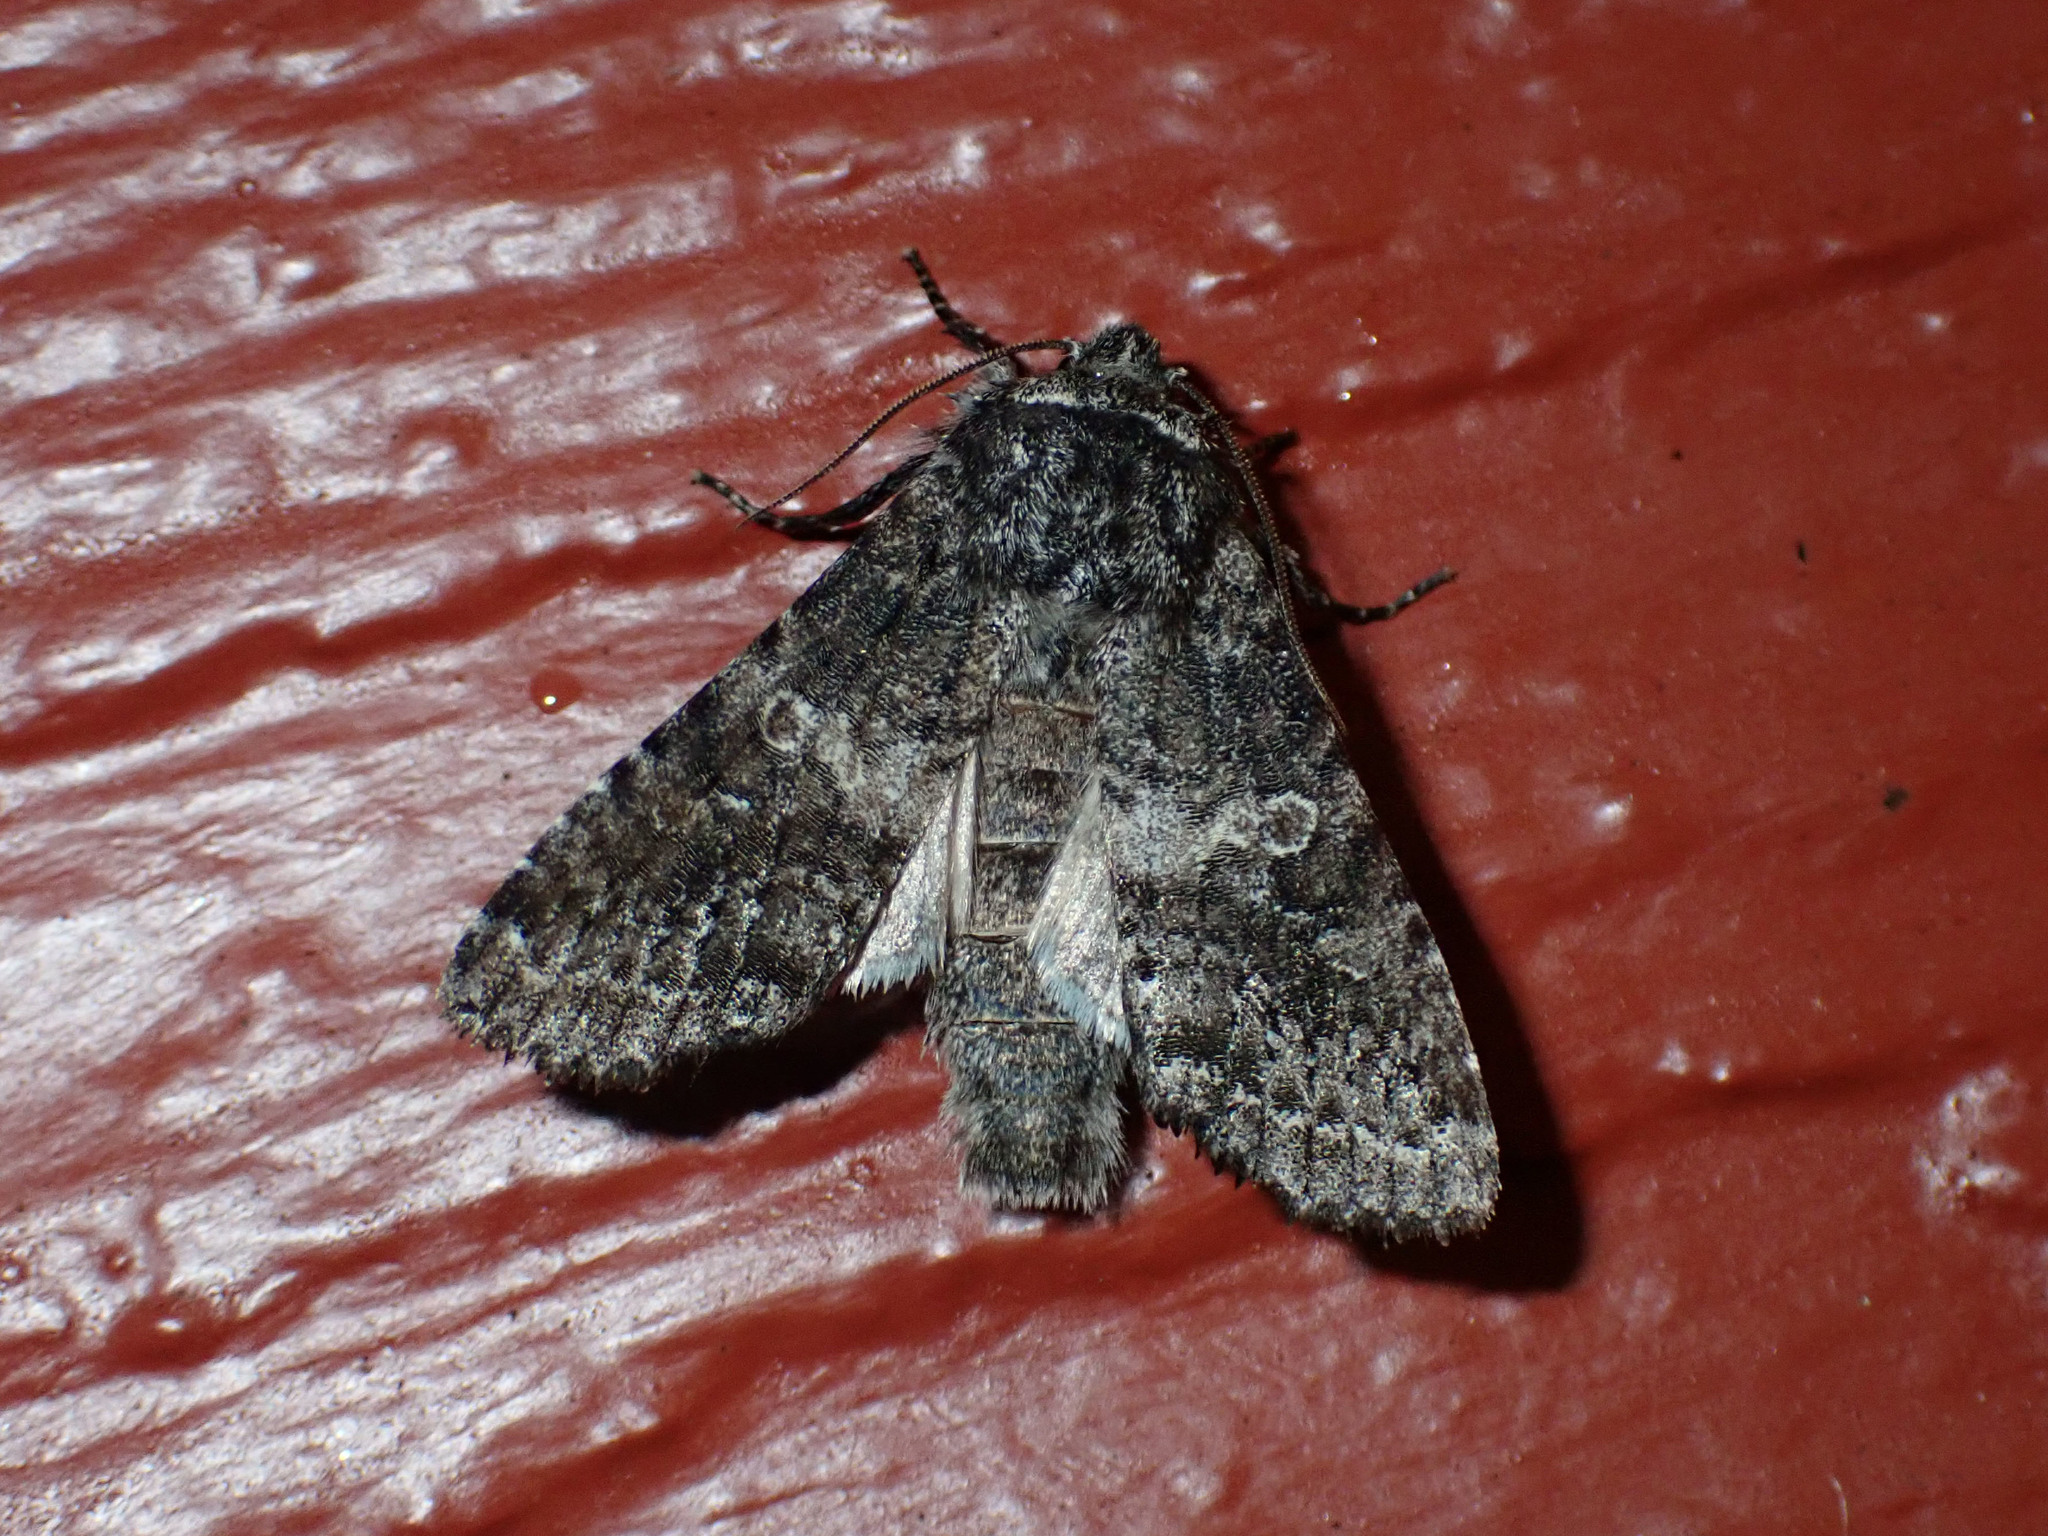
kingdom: Animalia
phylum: Arthropoda
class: Insecta
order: Lepidoptera
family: Noctuidae
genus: Egira
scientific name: Egira dolosa
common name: Lined black aspen cat.
